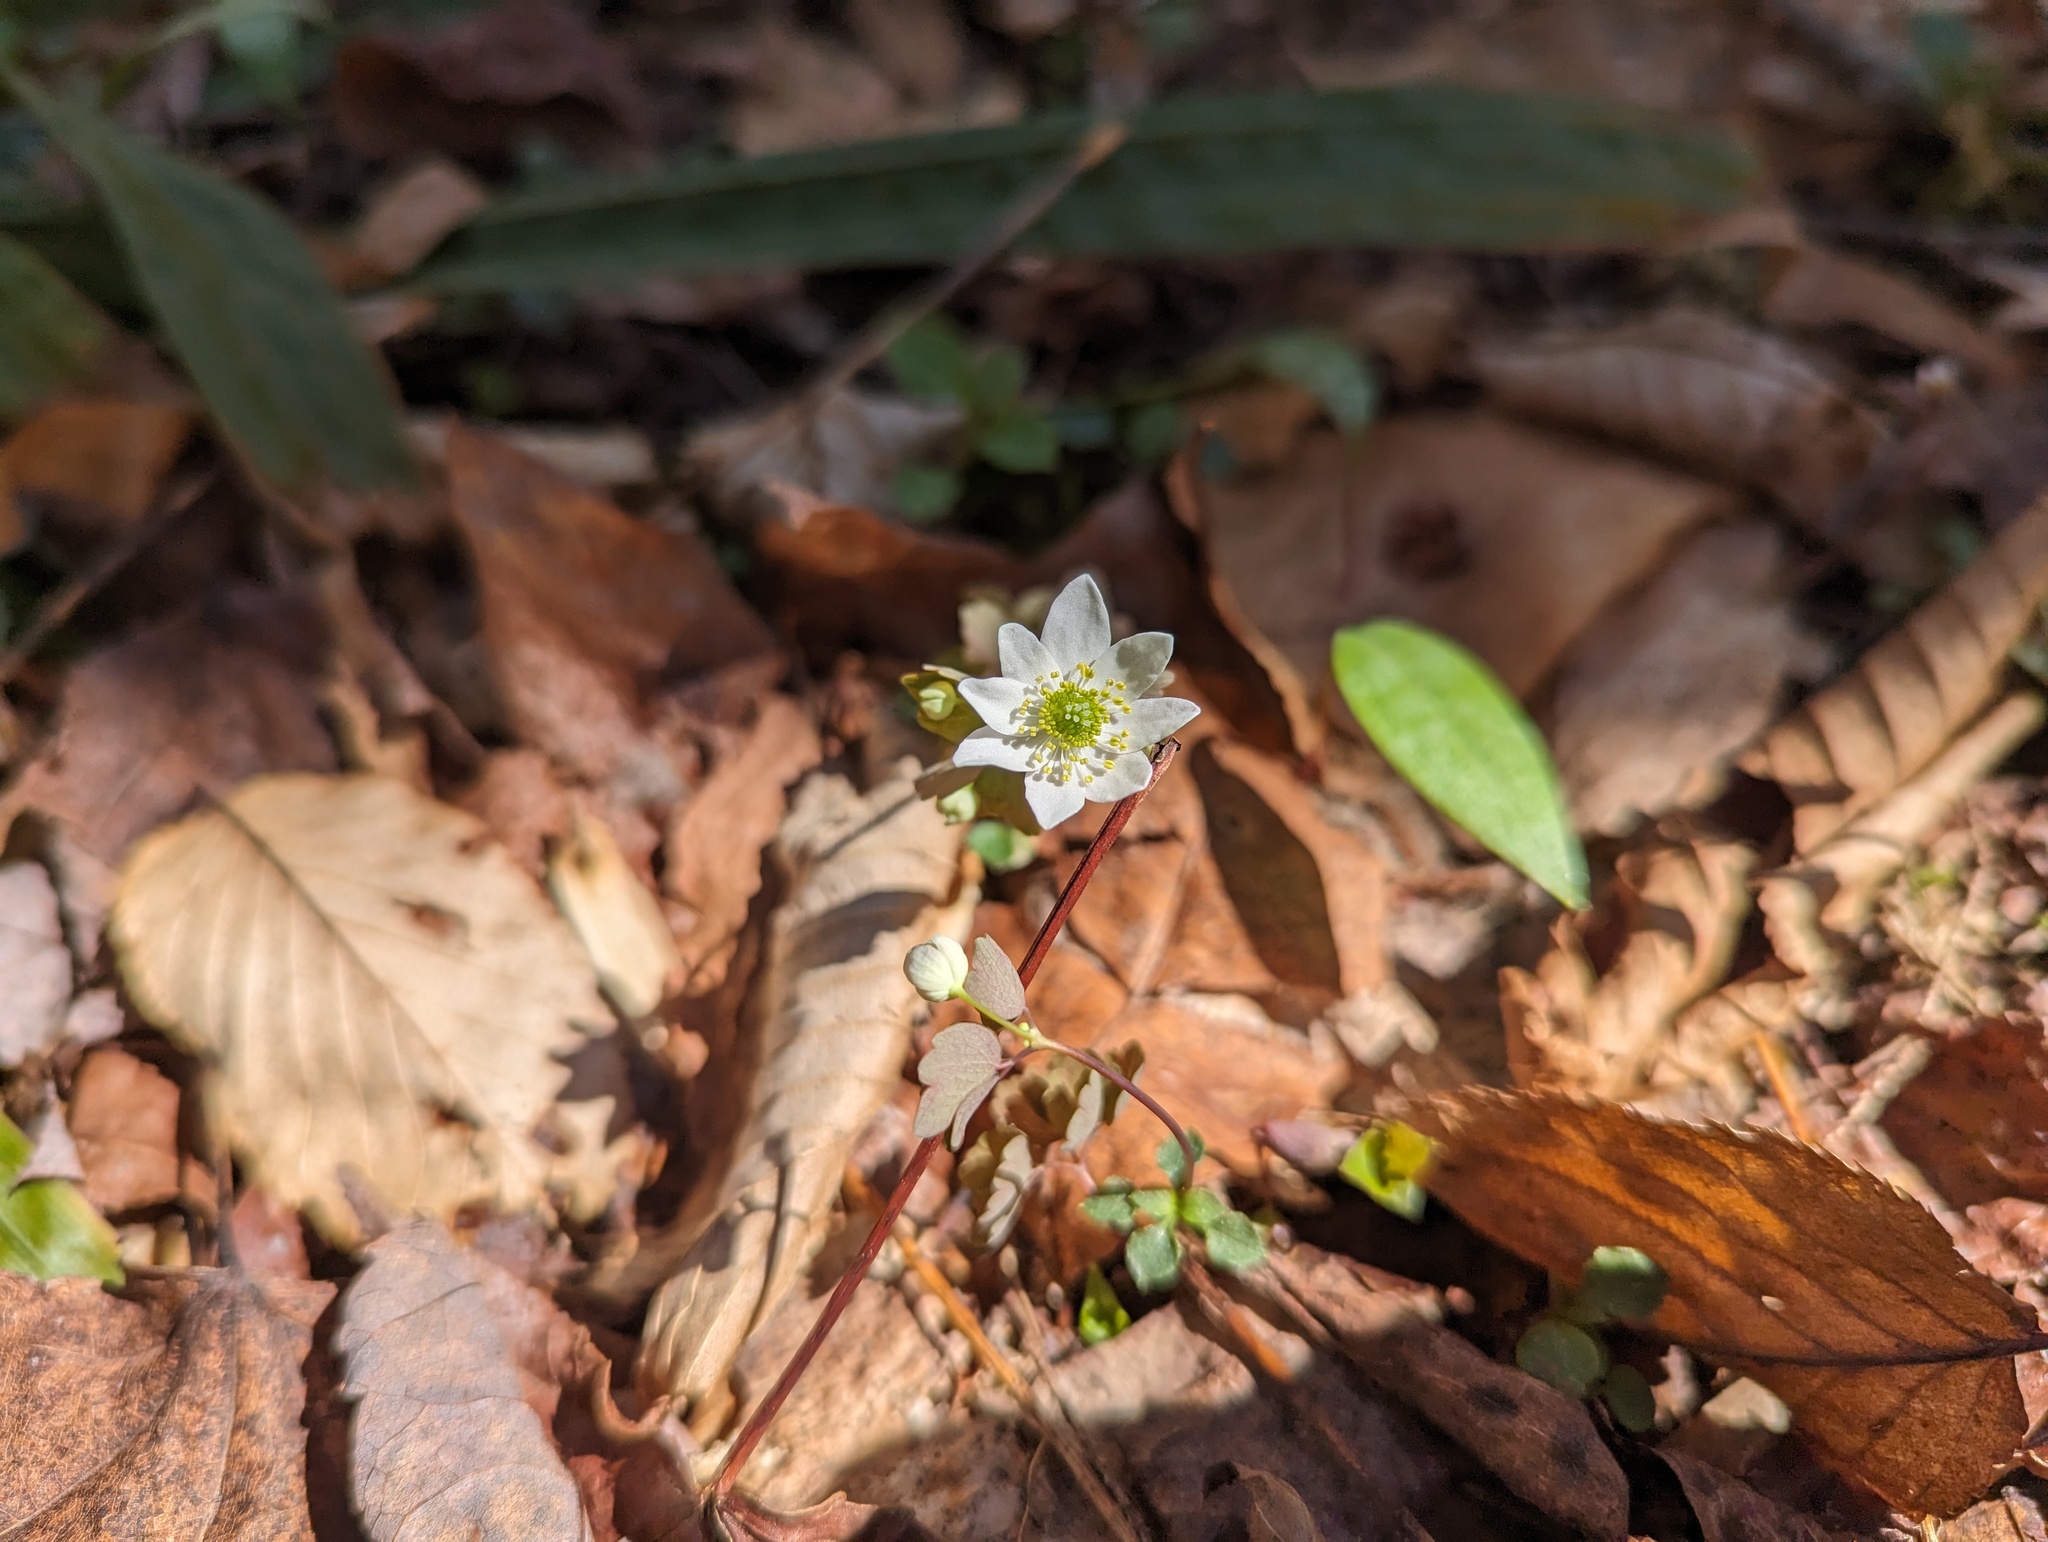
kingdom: Plantae
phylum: Tracheophyta
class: Magnoliopsida
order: Ranunculales
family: Ranunculaceae
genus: Thalictrum
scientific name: Thalictrum thalictroides
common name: Rue-anemone
